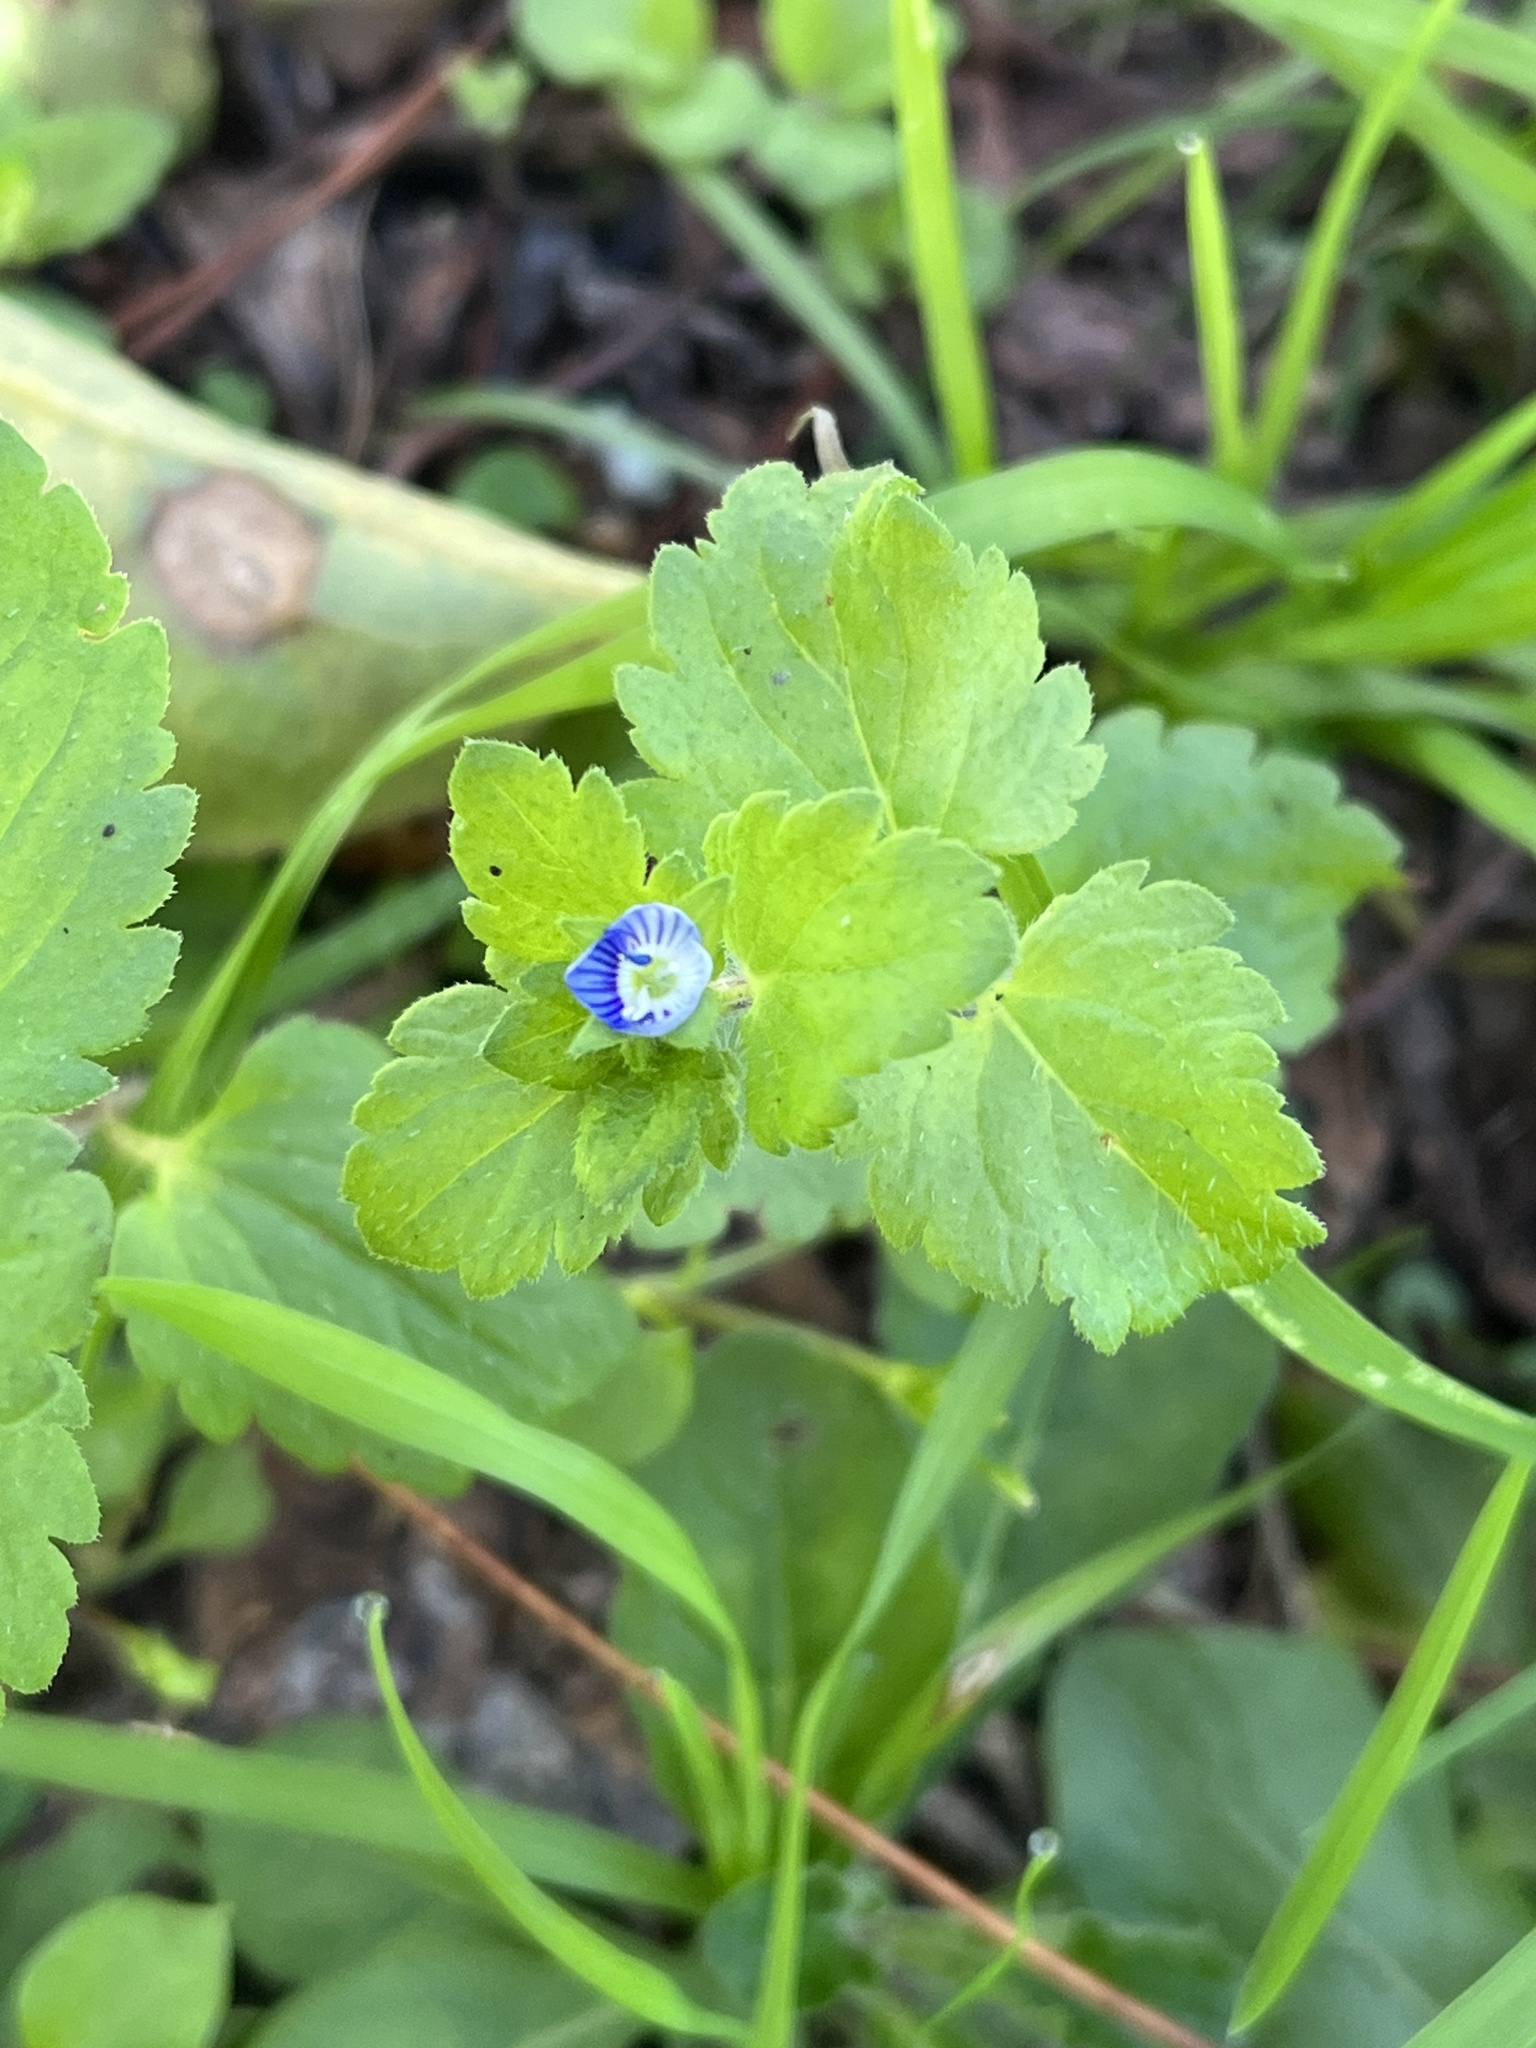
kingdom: Plantae
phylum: Tracheophyta
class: Magnoliopsida
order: Lamiales
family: Plantaginaceae
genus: Veronica
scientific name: Veronica persica
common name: Common field-speedwell
